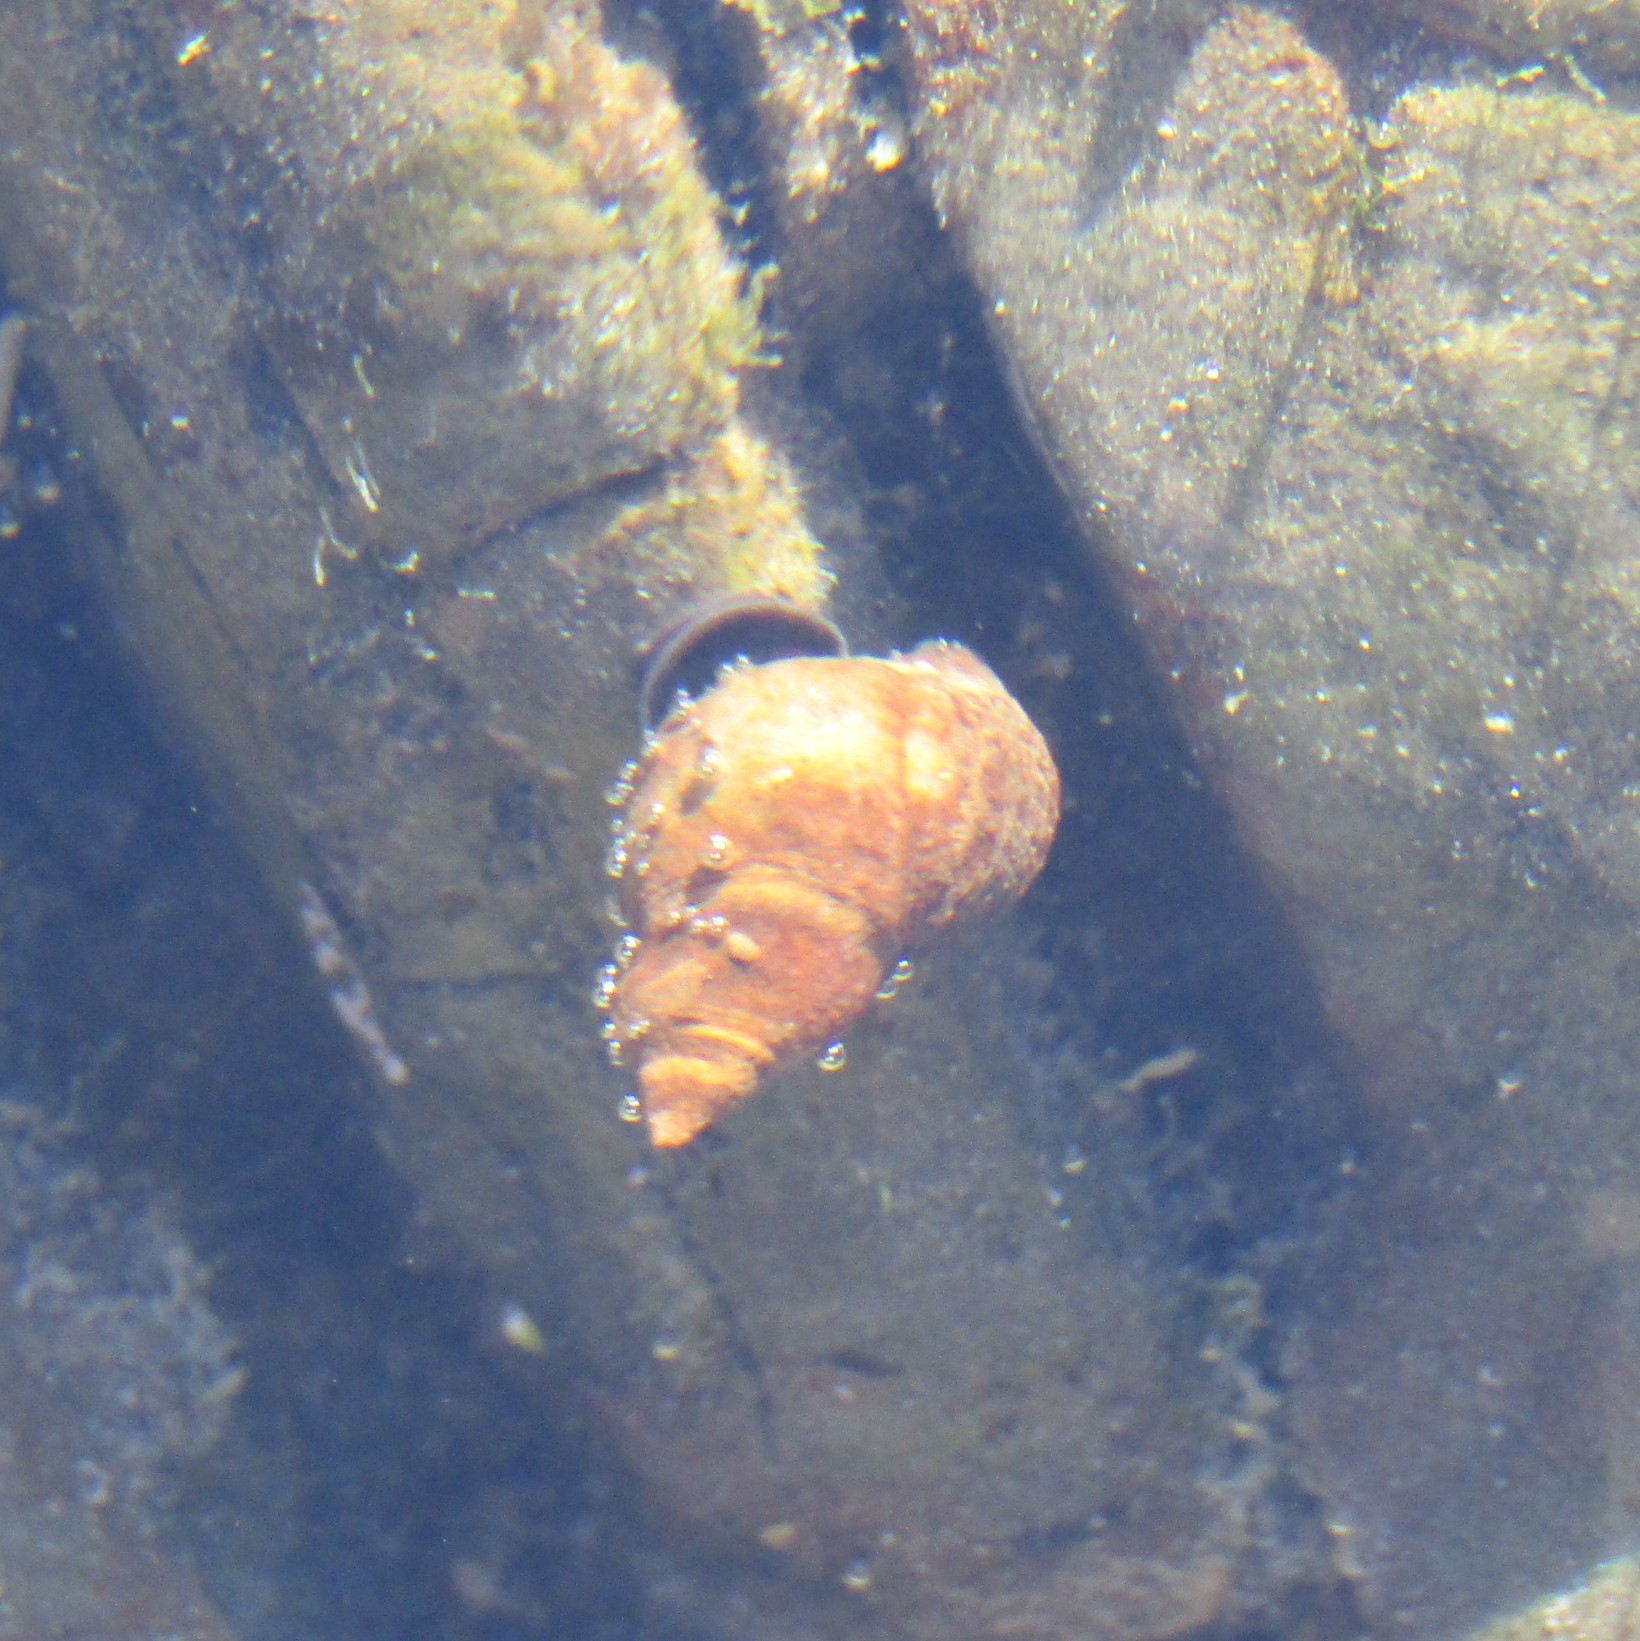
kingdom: Animalia
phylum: Mollusca
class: Gastropoda
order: Littorinimorpha
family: Littorinidae
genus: Austrolittorina
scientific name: Austrolittorina cincta
